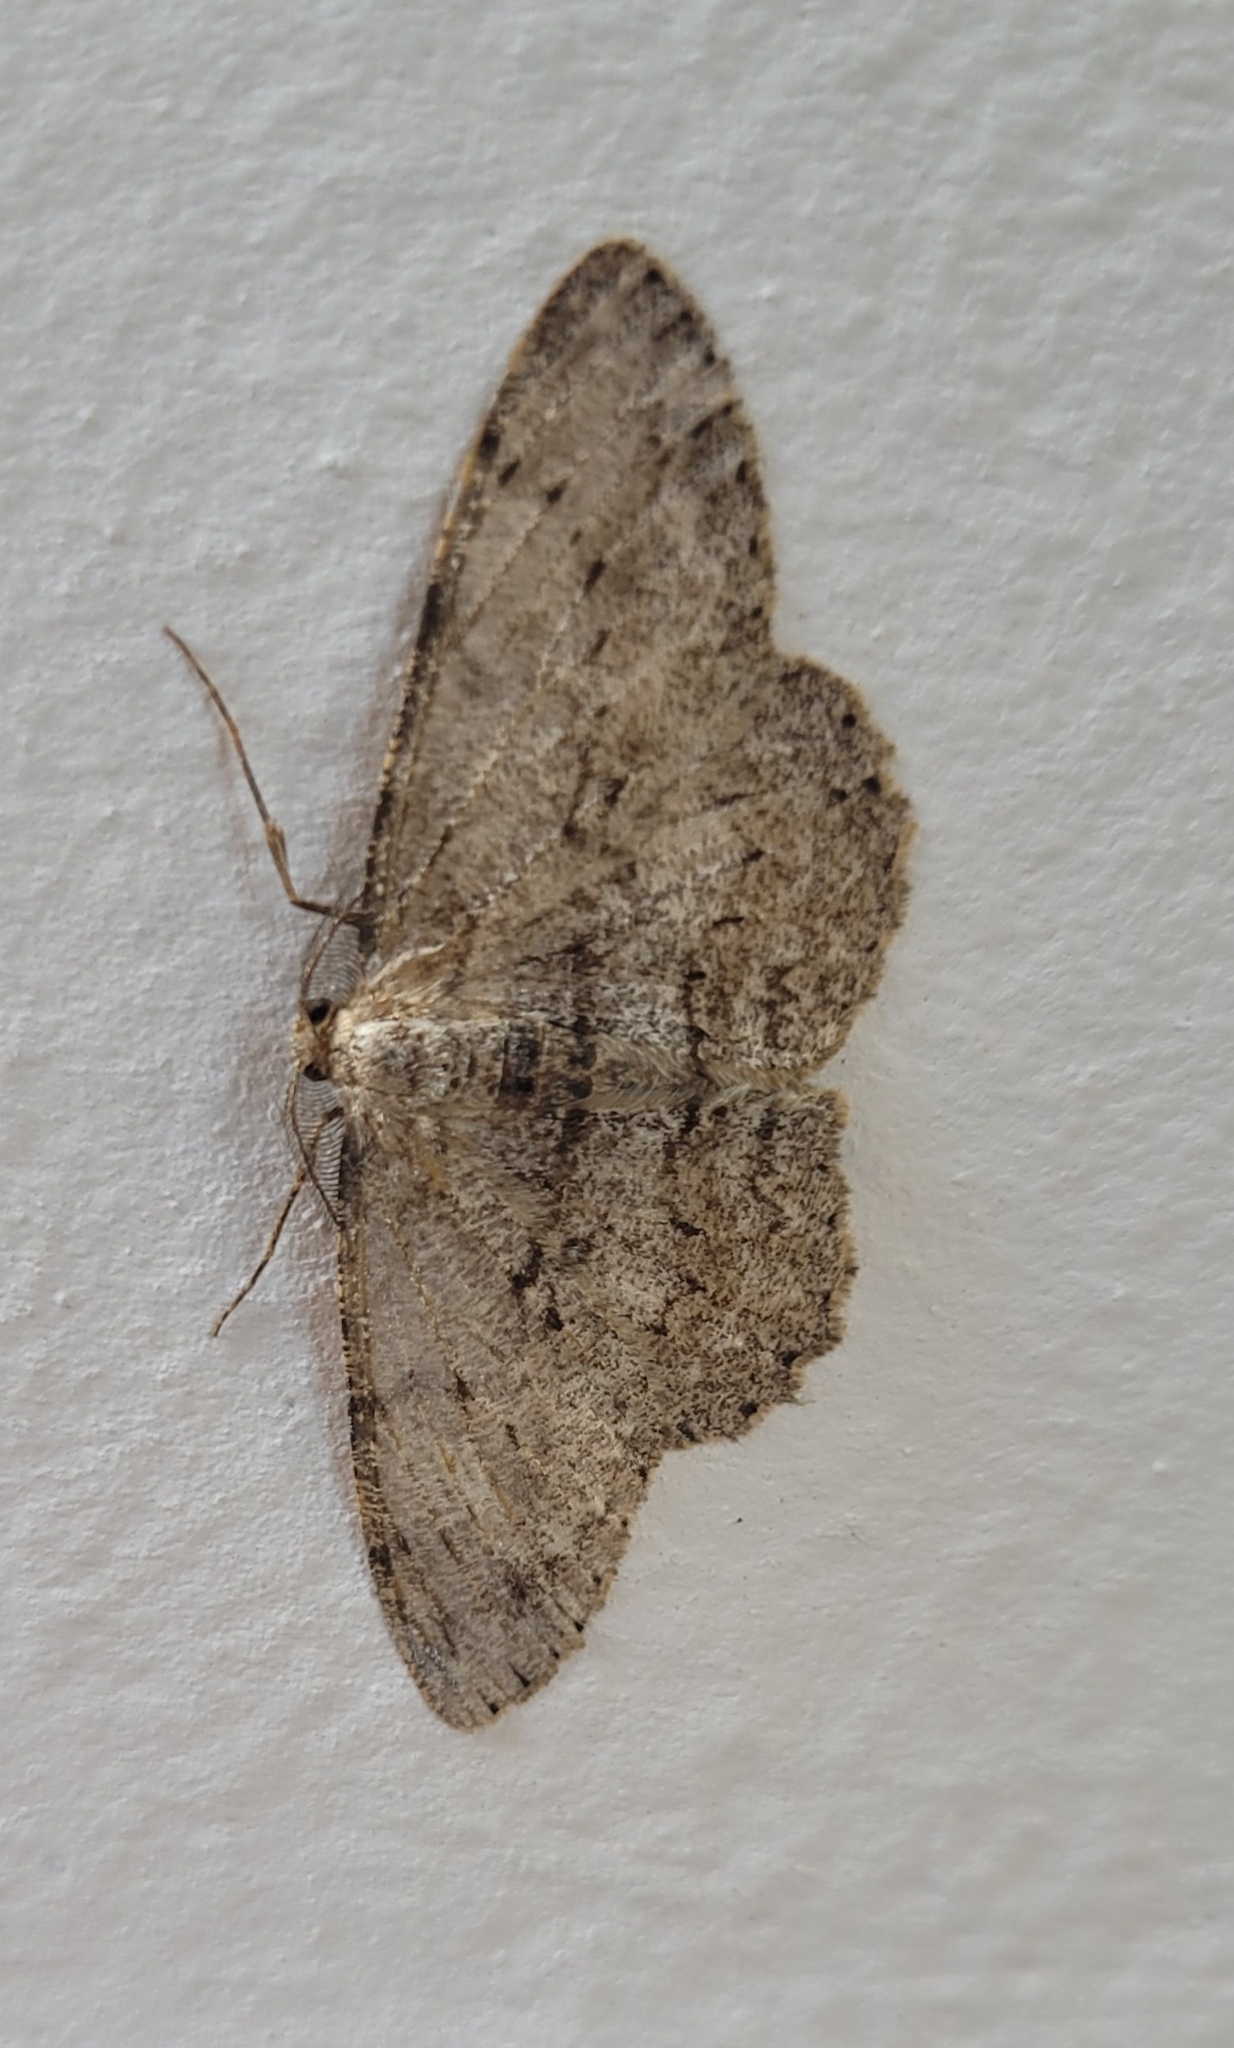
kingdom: Animalia
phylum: Arthropoda
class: Insecta
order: Lepidoptera
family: Geometridae
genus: Hypomecis
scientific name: Hypomecis punctinalis
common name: Pale oak beauty
